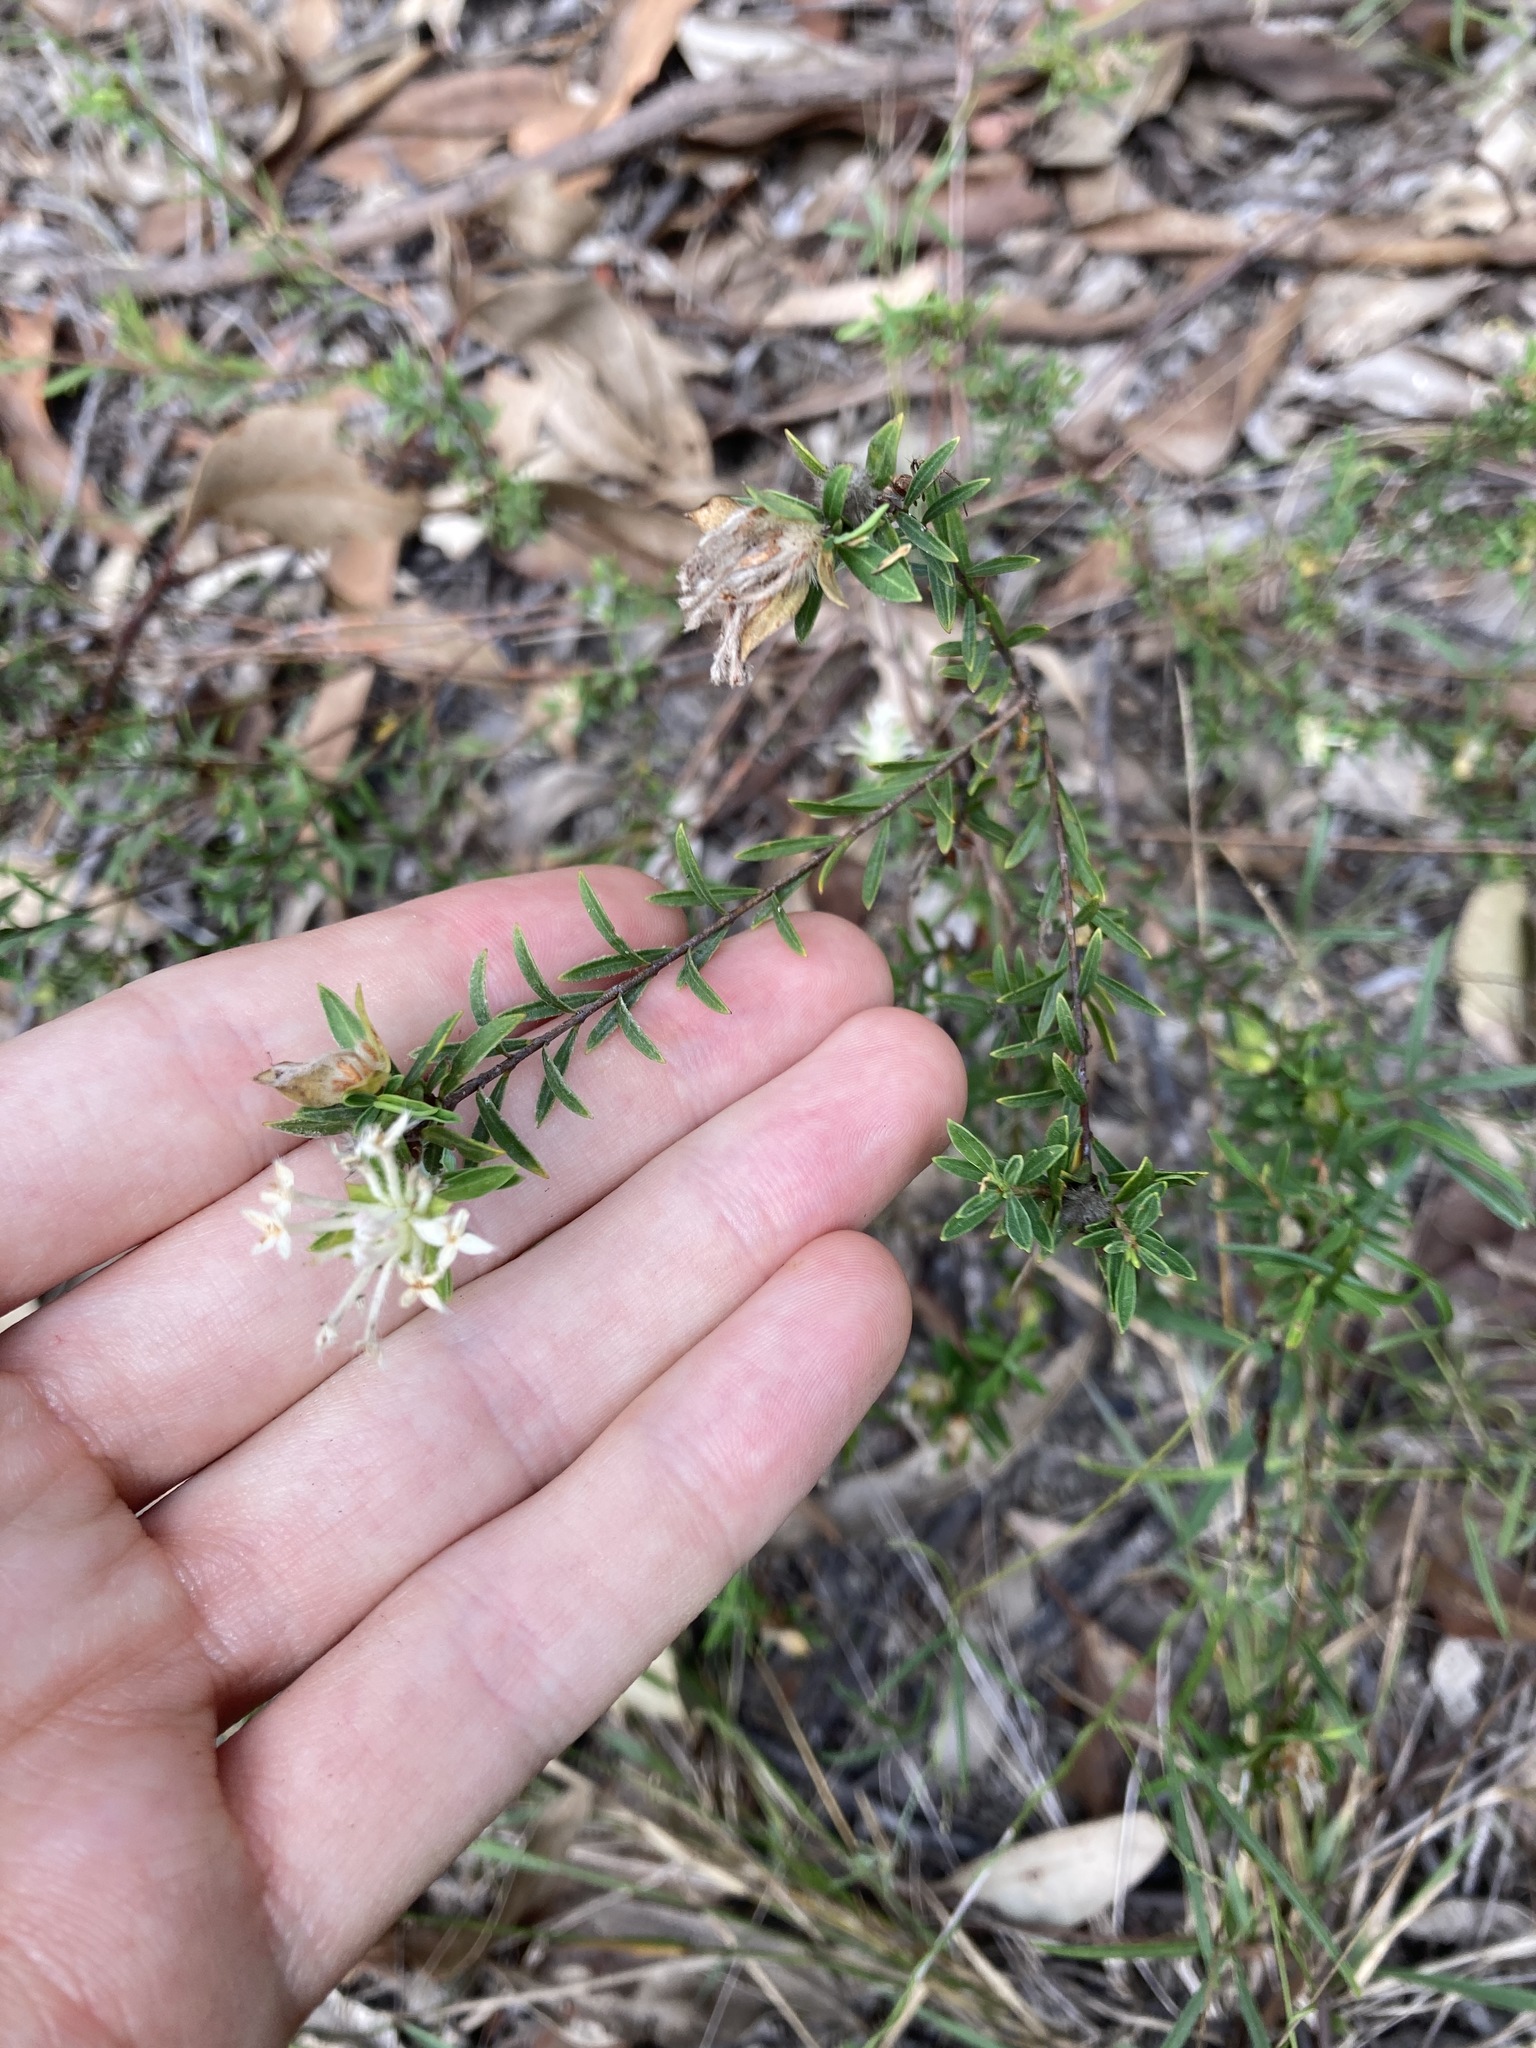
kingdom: Plantae
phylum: Tracheophyta
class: Magnoliopsida
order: Malvales
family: Thymelaeaceae
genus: Pimelea
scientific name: Pimelea linifolia
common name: Queen-of-the-bush
